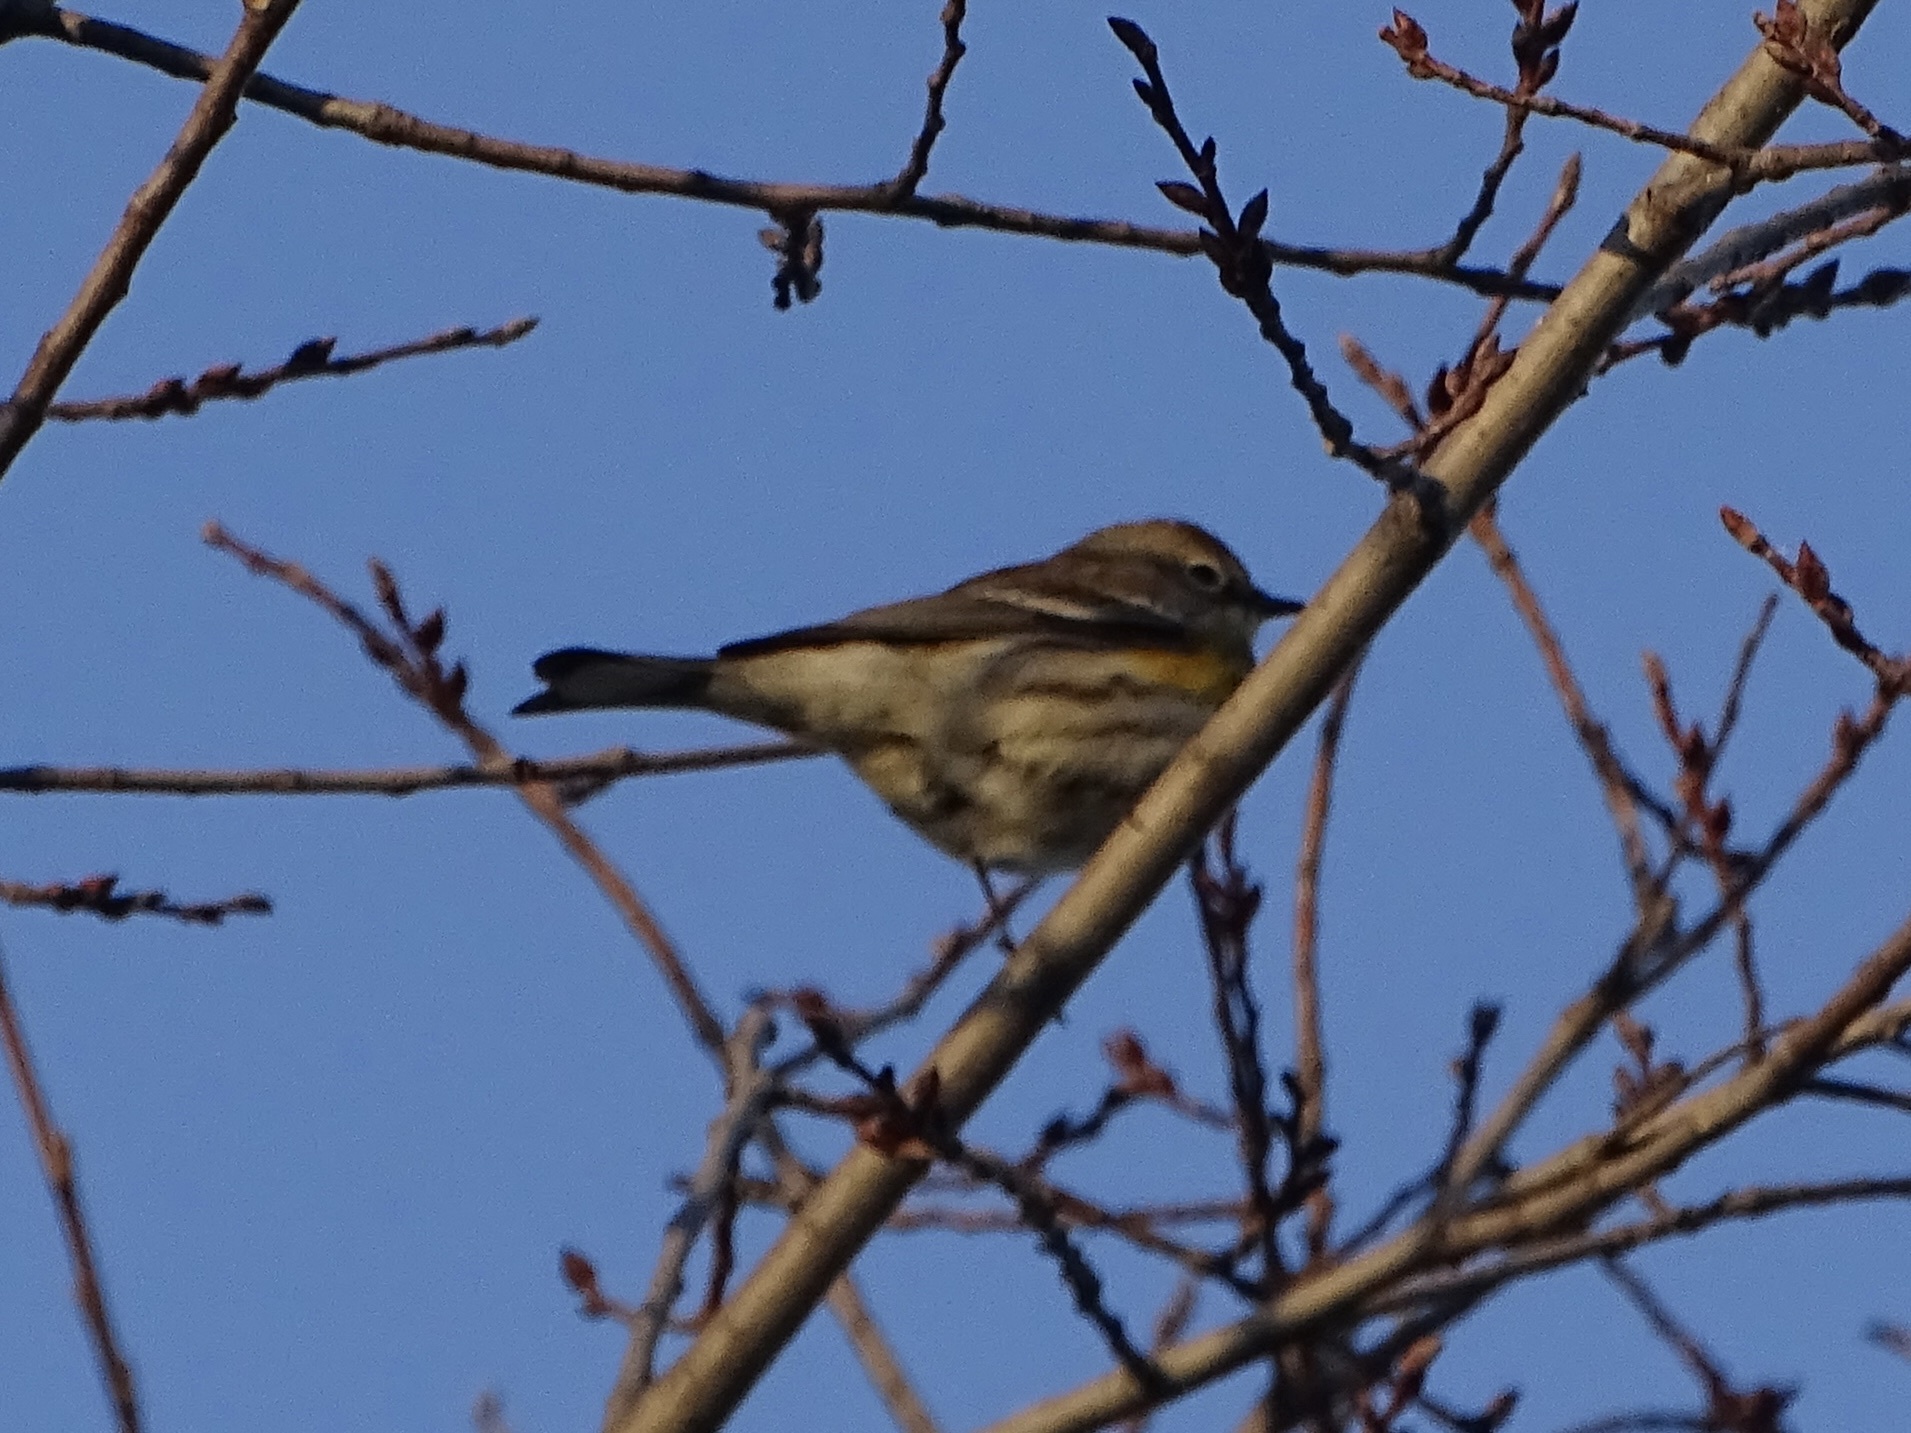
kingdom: Animalia
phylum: Chordata
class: Aves
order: Passeriformes
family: Parulidae
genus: Setophaga
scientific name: Setophaga coronata
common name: Myrtle warbler
